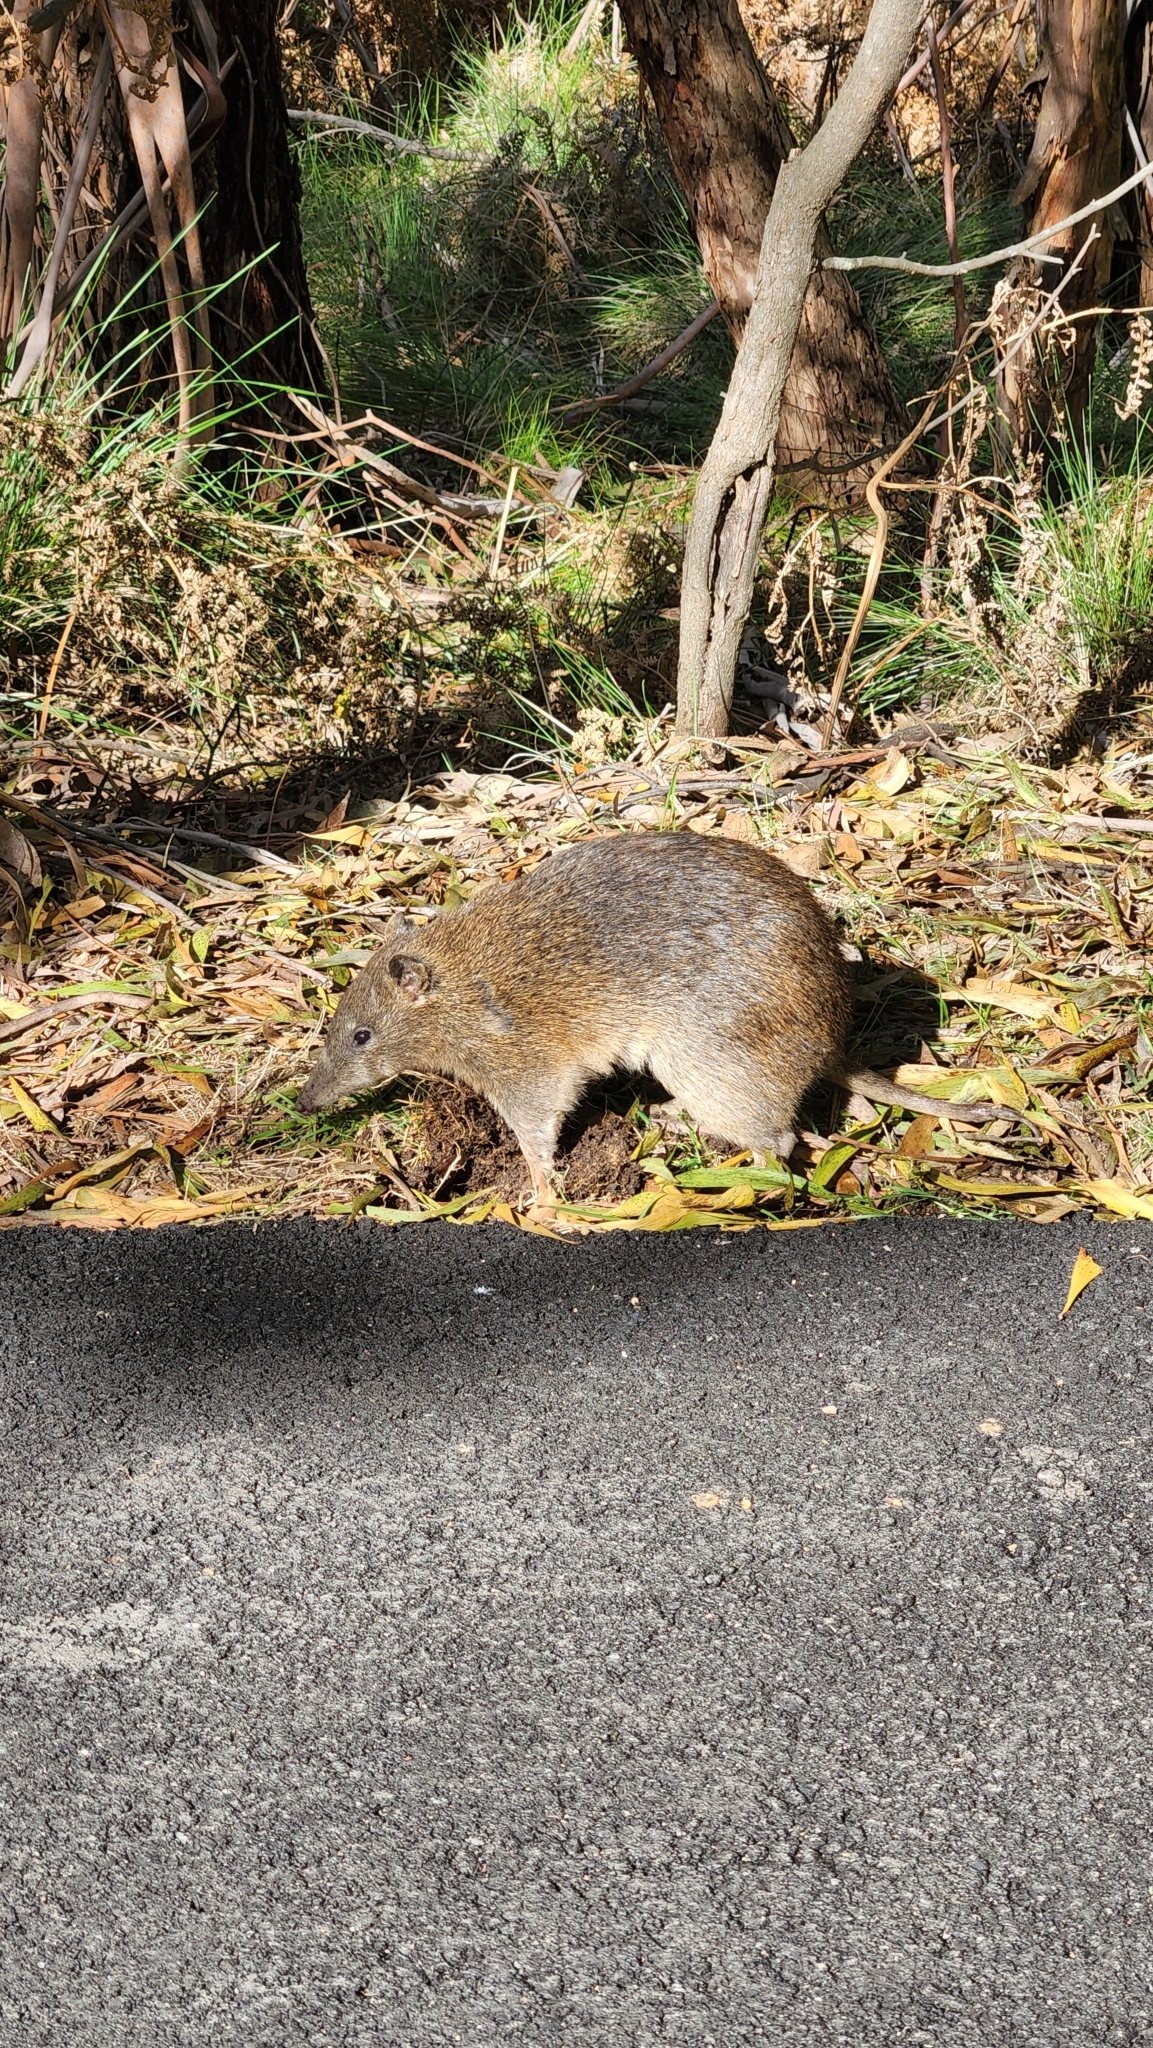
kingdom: Animalia
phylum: Chordata
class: Mammalia
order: Peramelemorphia
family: Peramelidae
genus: Isoodon
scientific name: Isoodon obesulus
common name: Southern brown bandicoot
